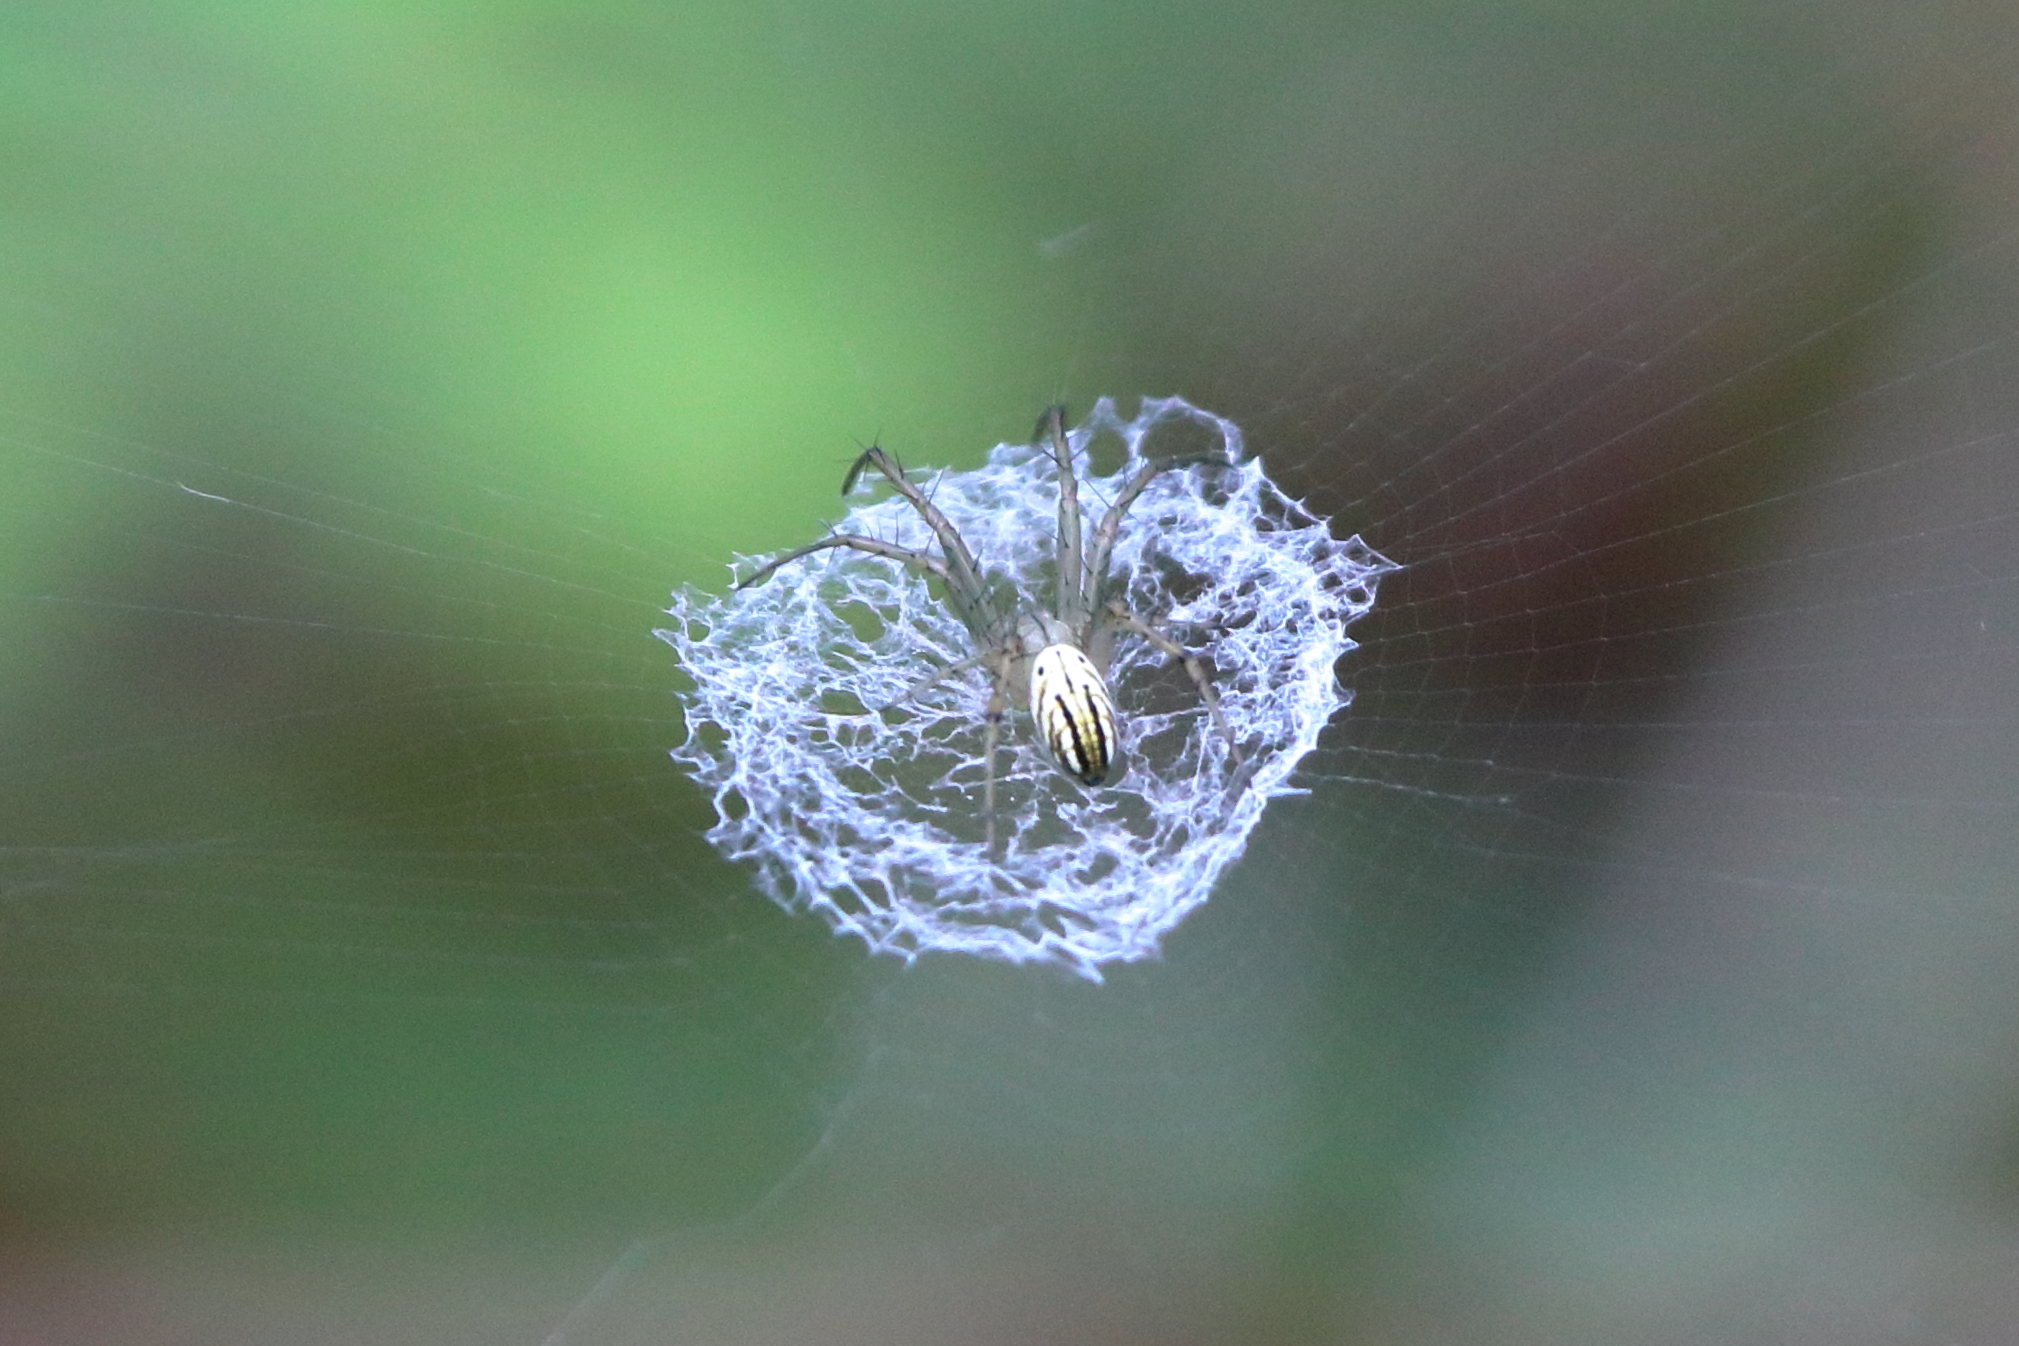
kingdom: Animalia
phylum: Arthropoda
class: Arachnida
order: Araneae
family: Araneidae
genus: Mangora
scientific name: Mangora gibberosa
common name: Lined orbweaver
